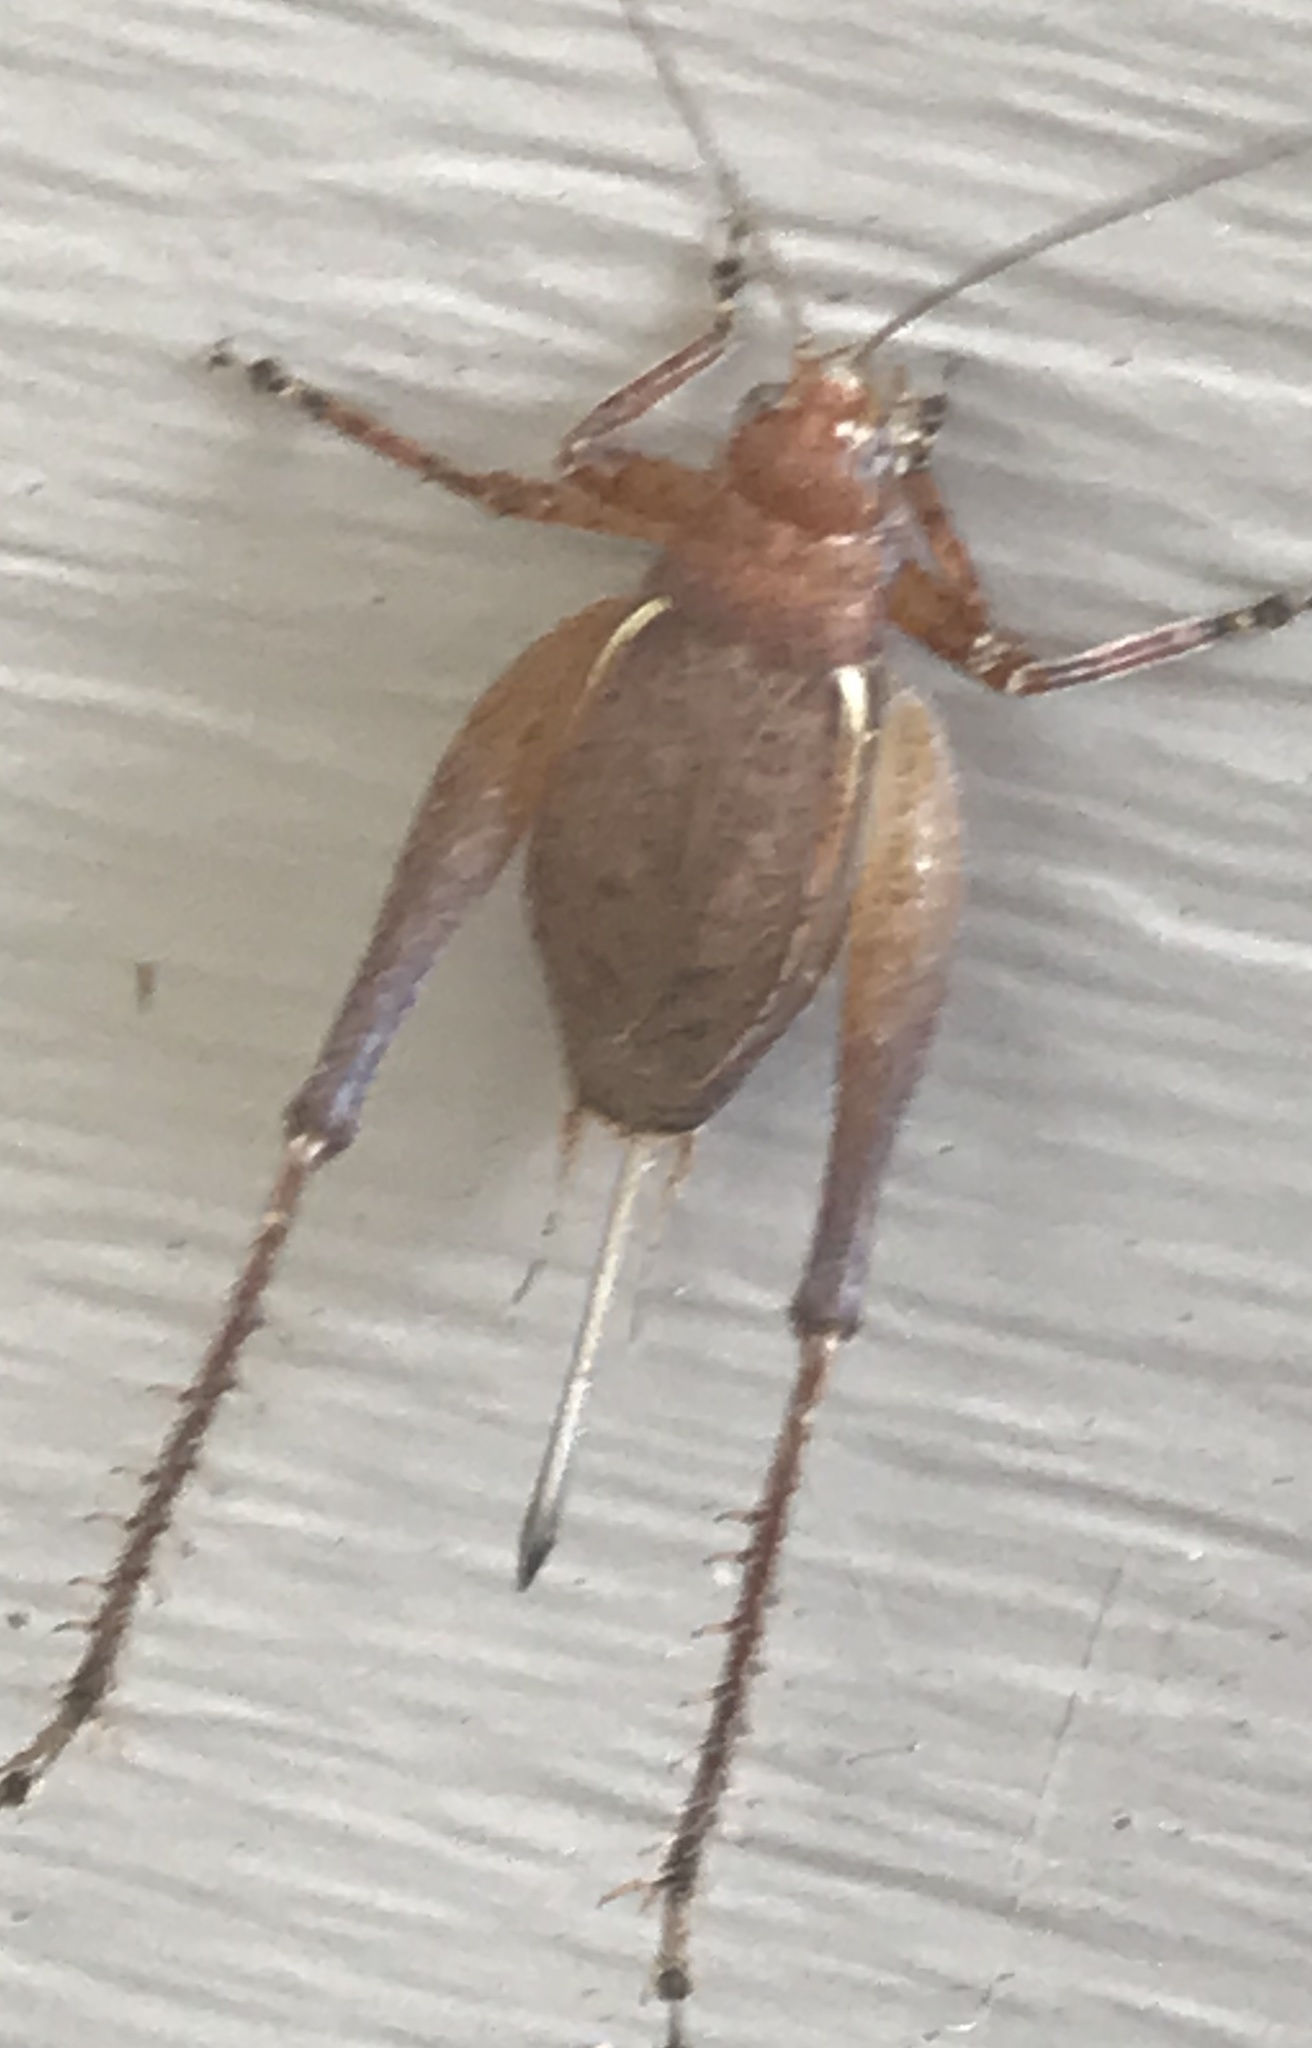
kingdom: Animalia
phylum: Arthropoda
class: Insecta
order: Orthoptera
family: Gryllidae
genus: Hapithus
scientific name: Hapithus agitator
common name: Restless bush cricket
